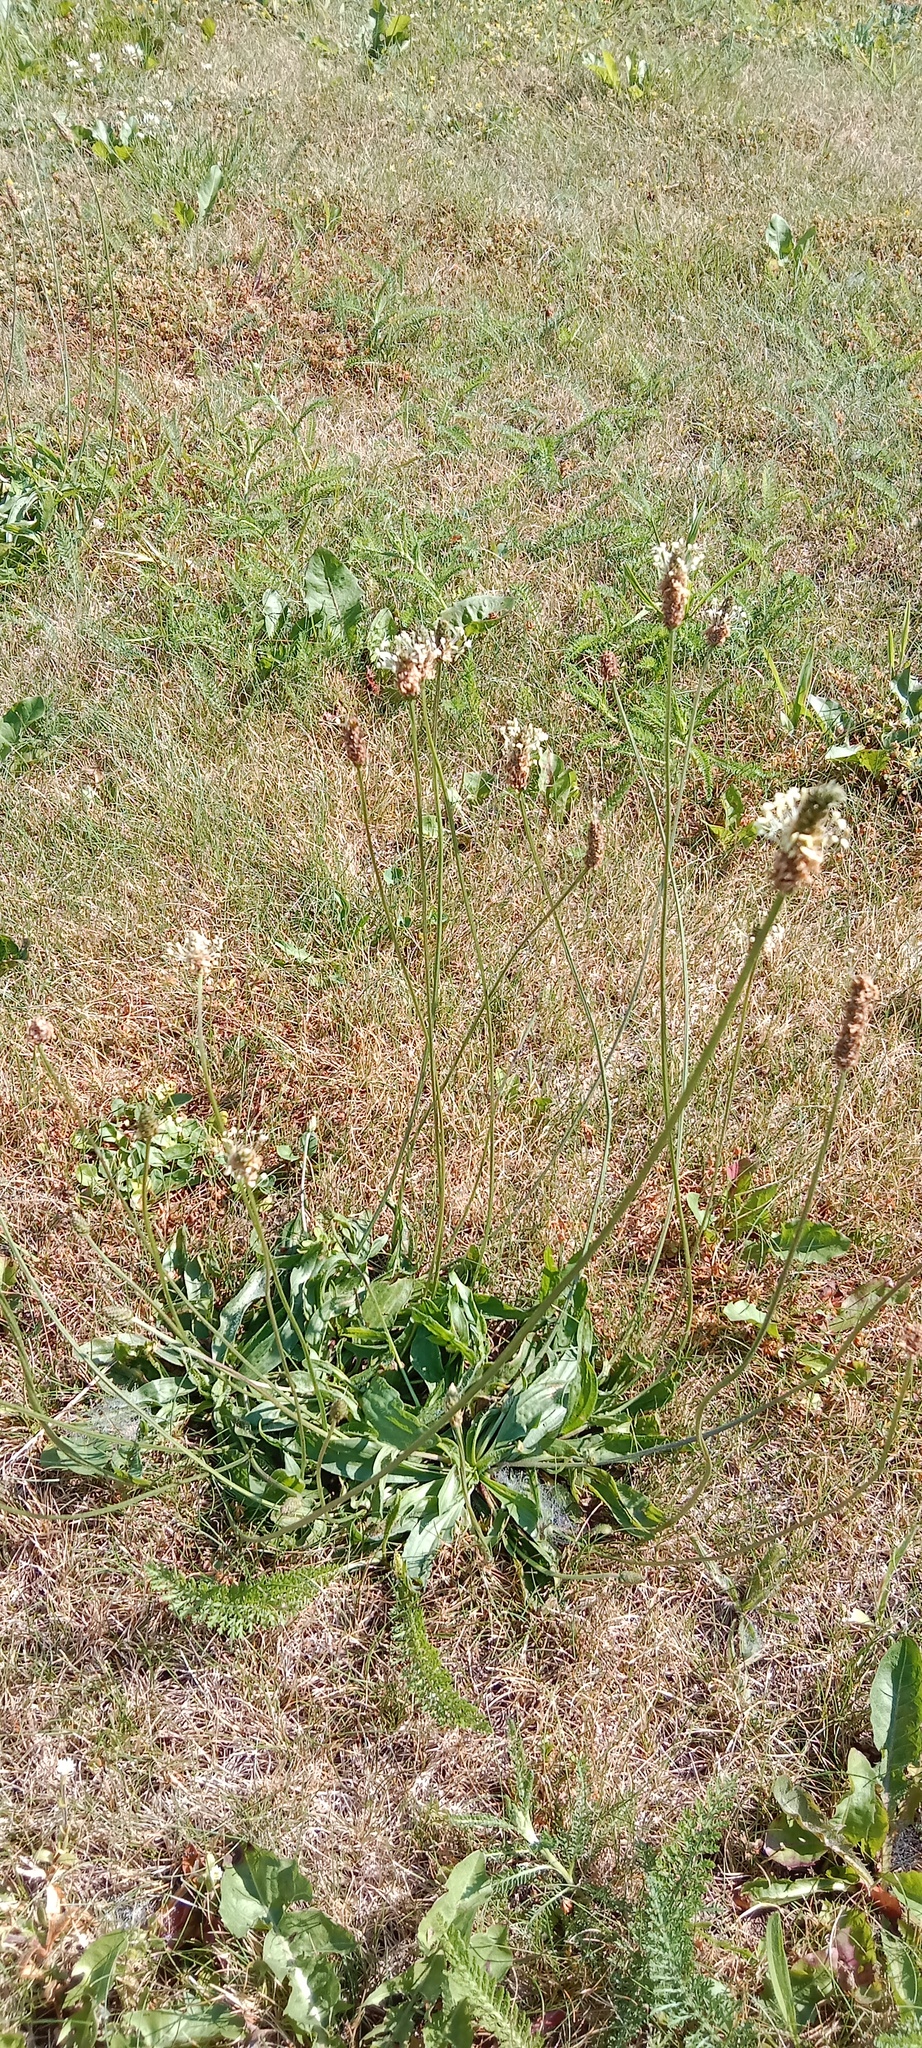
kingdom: Plantae
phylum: Tracheophyta
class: Magnoliopsida
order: Lamiales
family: Plantaginaceae
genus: Plantago
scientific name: Plantago lanceolata
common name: Ribwort plantain
